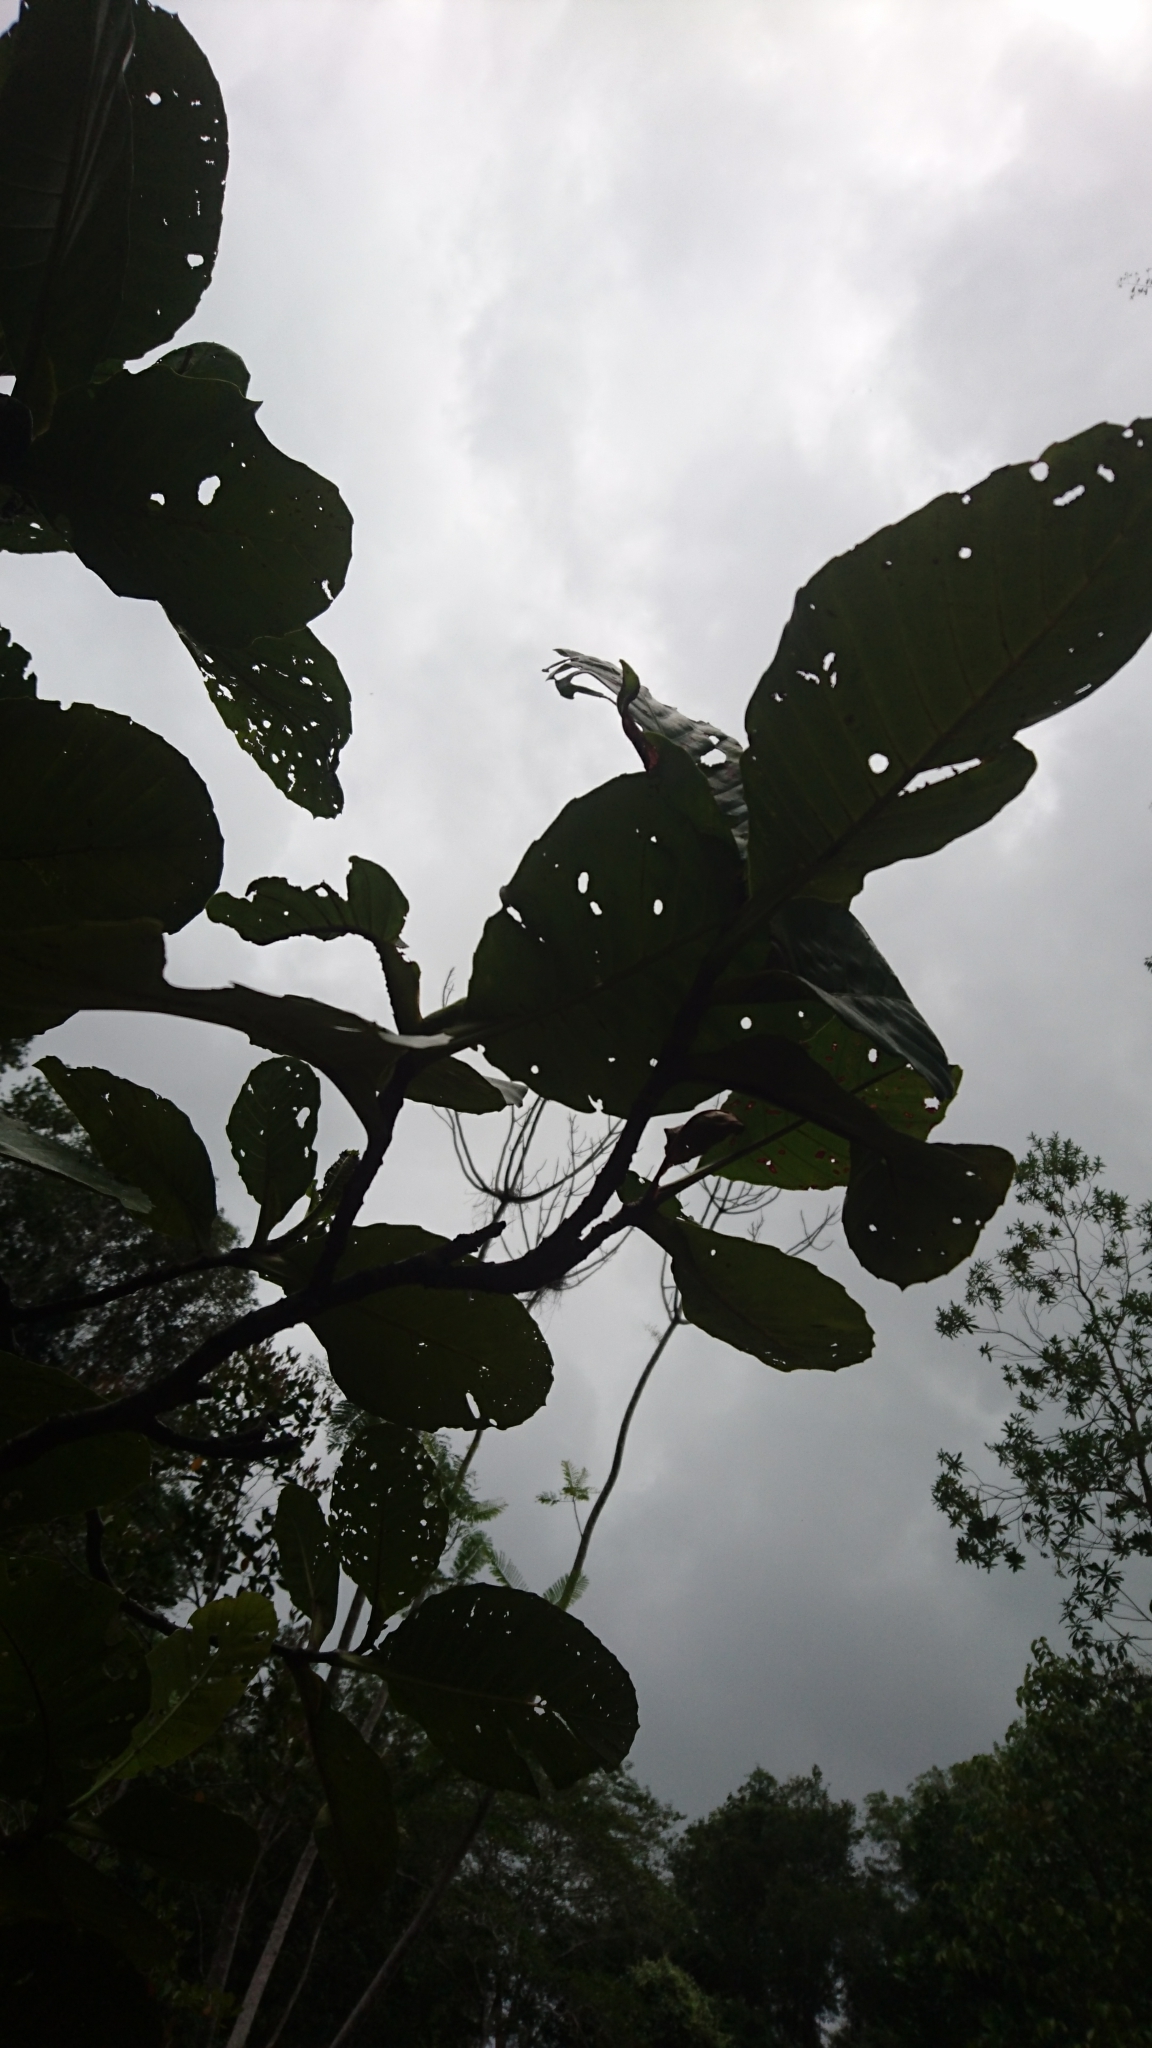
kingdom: Plantae
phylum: Tracheophyta
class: Magnoliopsida
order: Dilleniales
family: Dilleniaceae
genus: Dillenia
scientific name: Dillenia suffruticosa
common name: Shrubby dillenia
